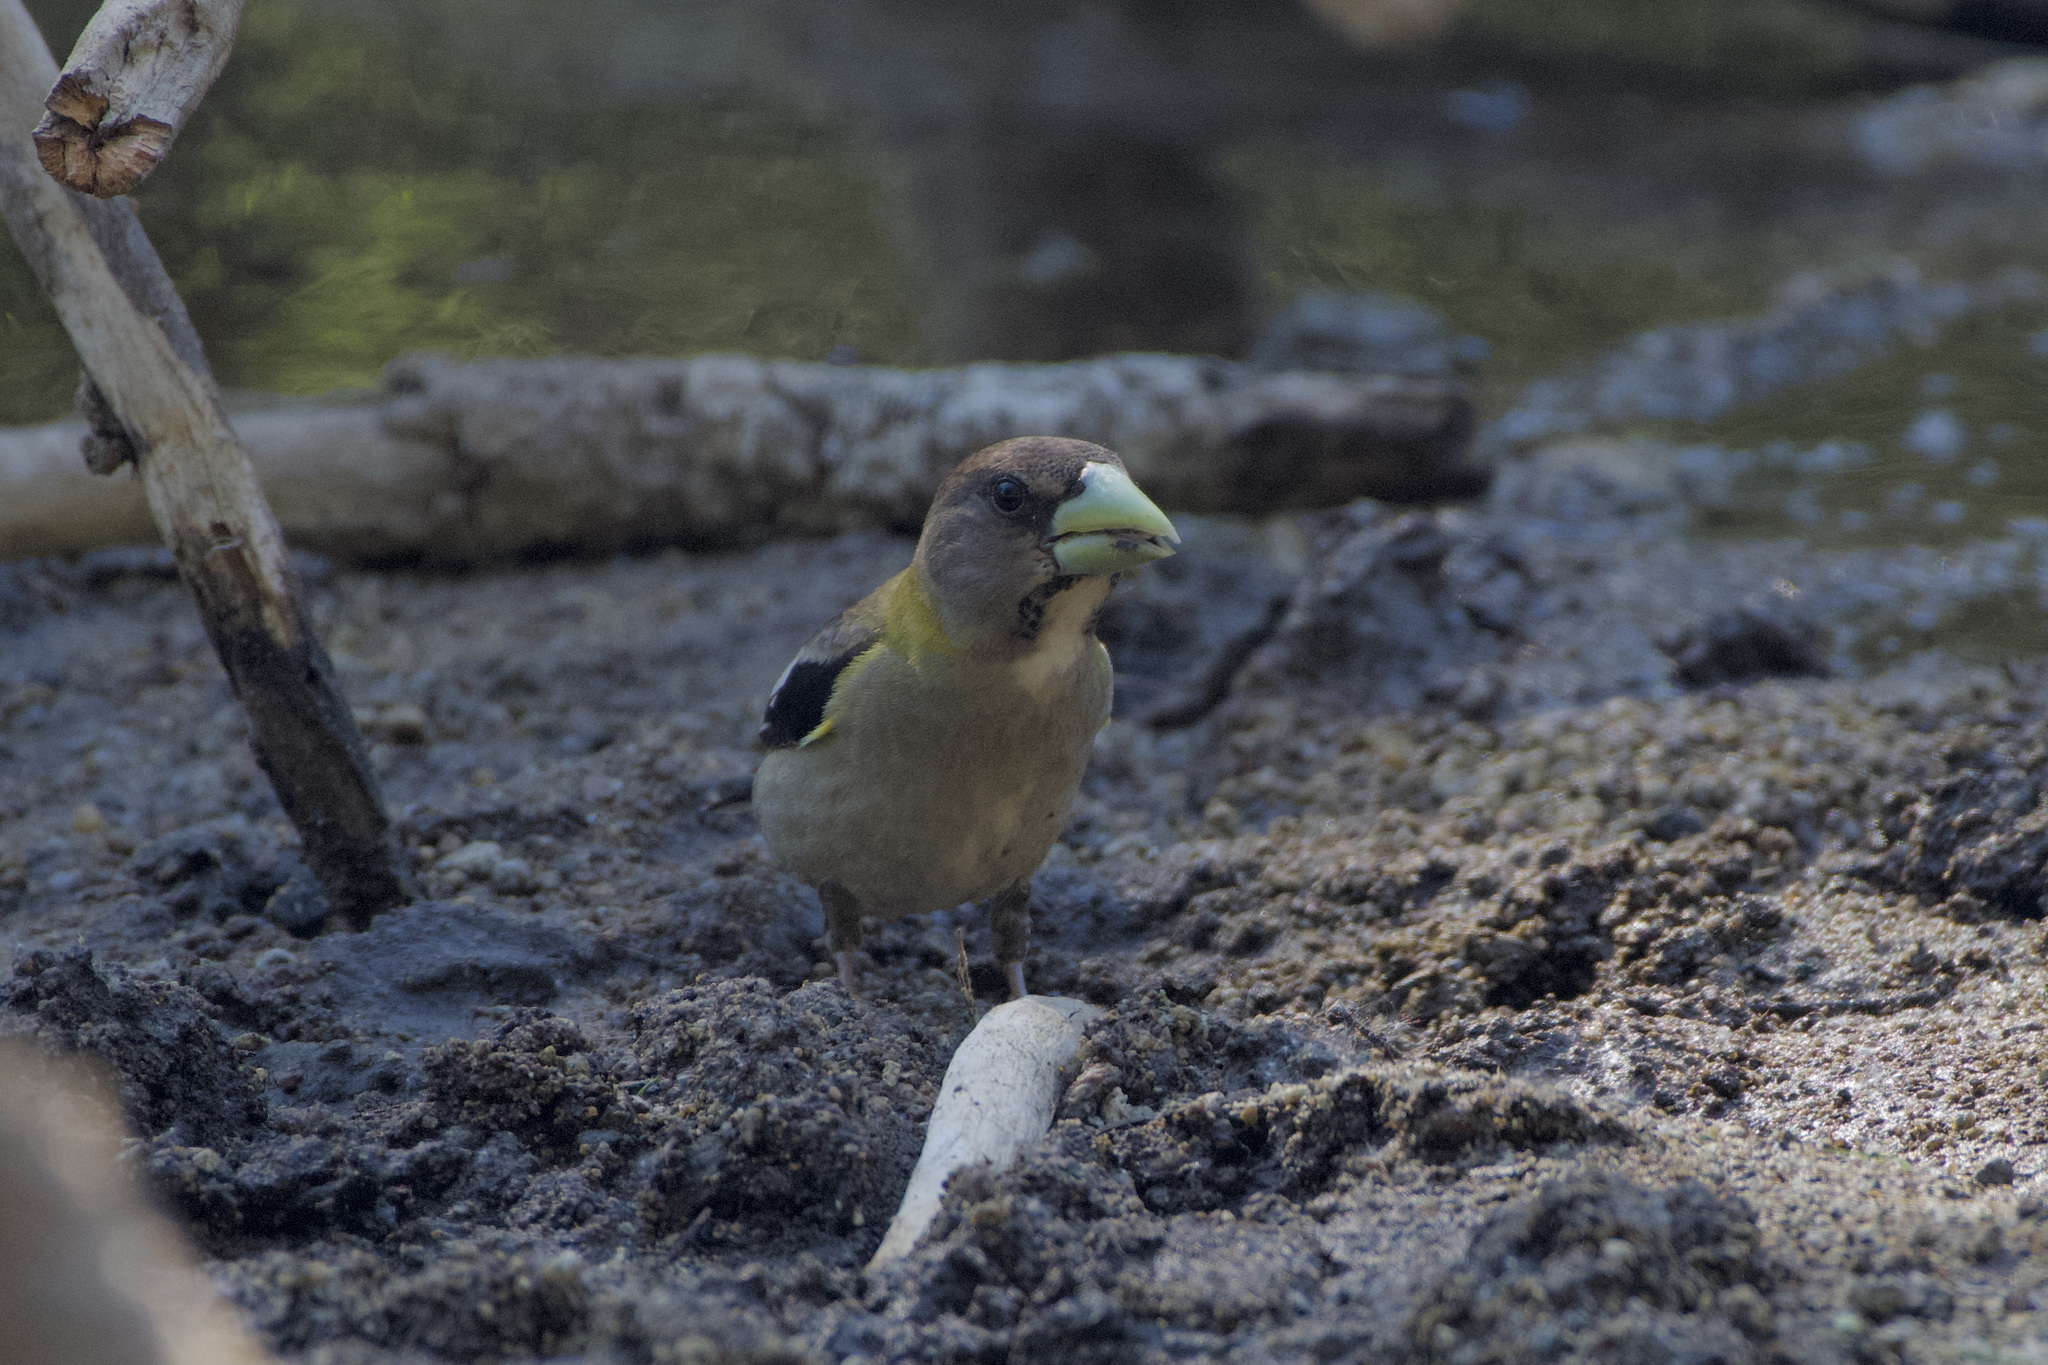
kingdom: Animalia
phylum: Chordata
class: Aves
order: Passeriformes
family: Fringillidae
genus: Hesperiphona
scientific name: Hesperiphona vespertina
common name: Evening grosbeak
